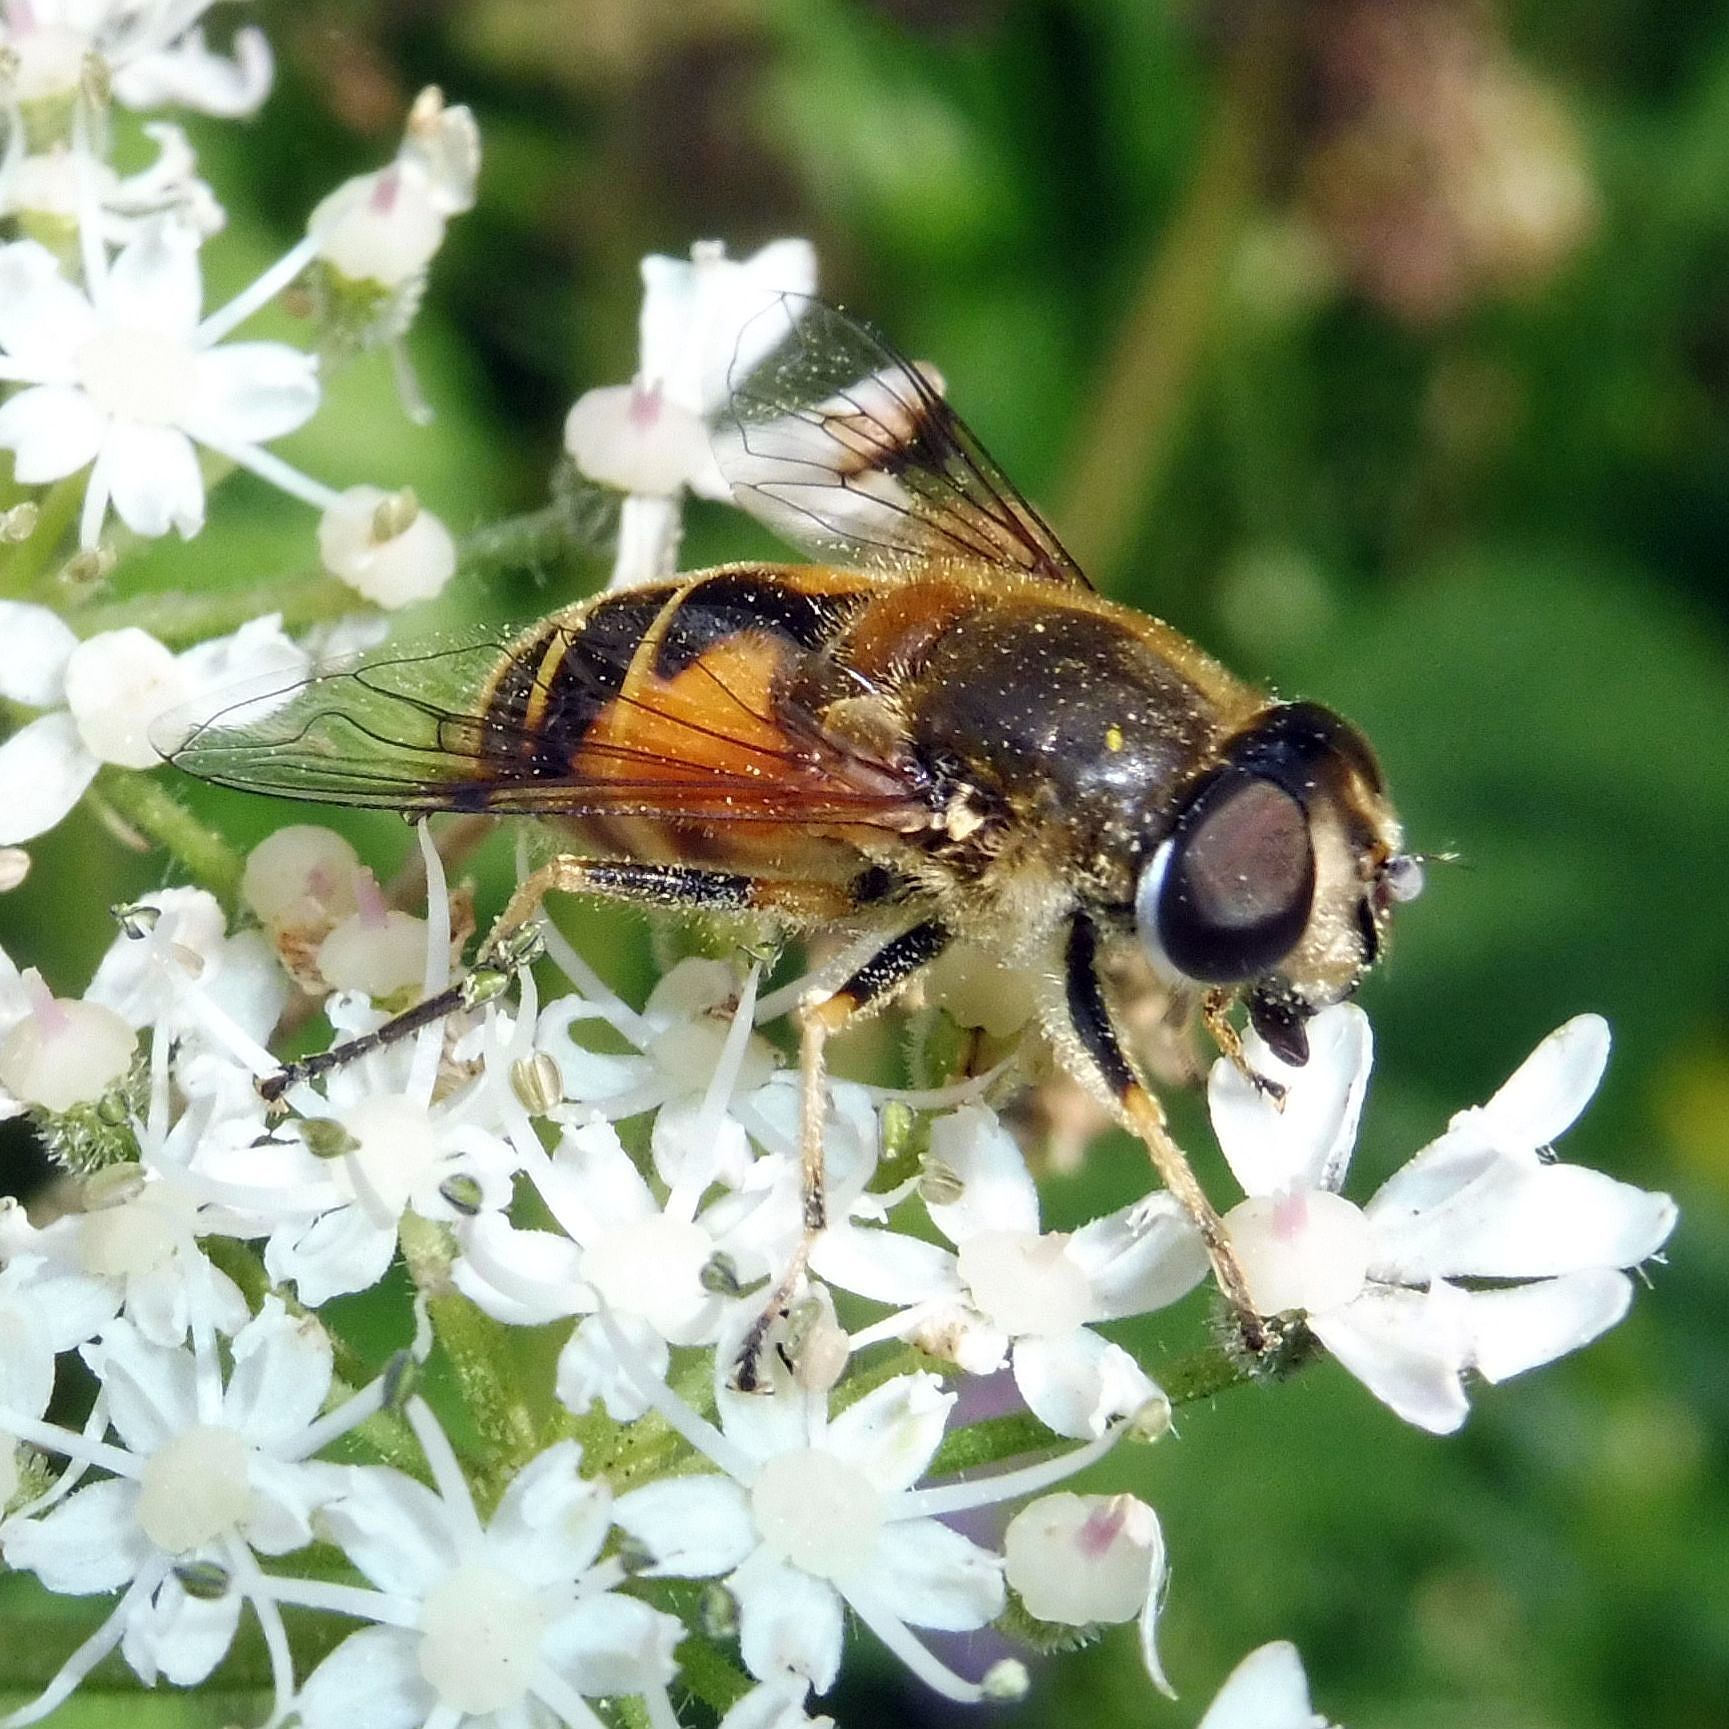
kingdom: Animalia
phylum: Arthropoda
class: Insecta
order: Diptera
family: Syrphidae
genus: Cheilosia
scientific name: Cheilosia morio
